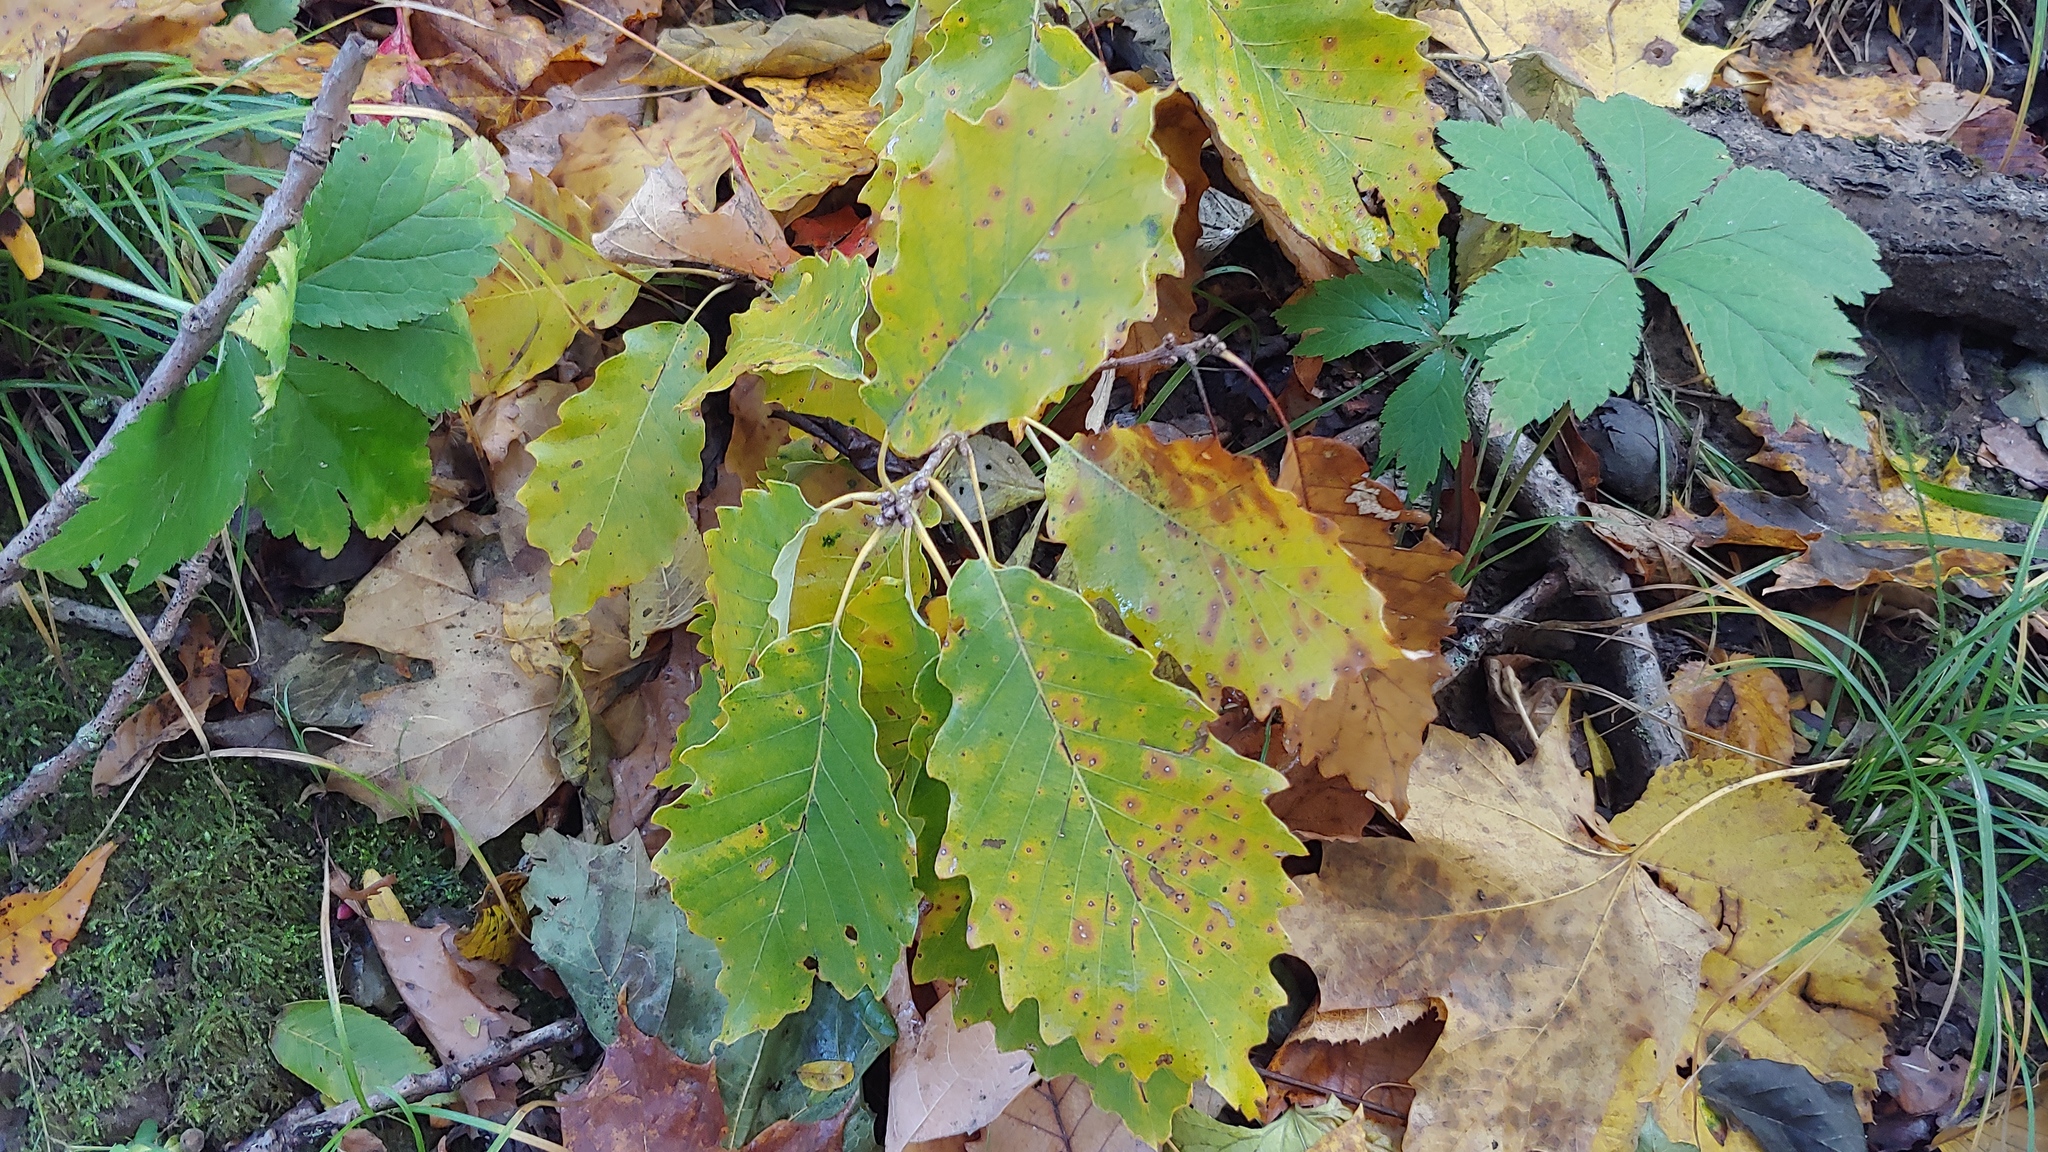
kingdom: Plantae
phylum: Tracheophyta
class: Magnoliopsida
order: Fagales
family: Fagaceae
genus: Quercus
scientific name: Quercus muehlenbergii
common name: Chinkapin oak
